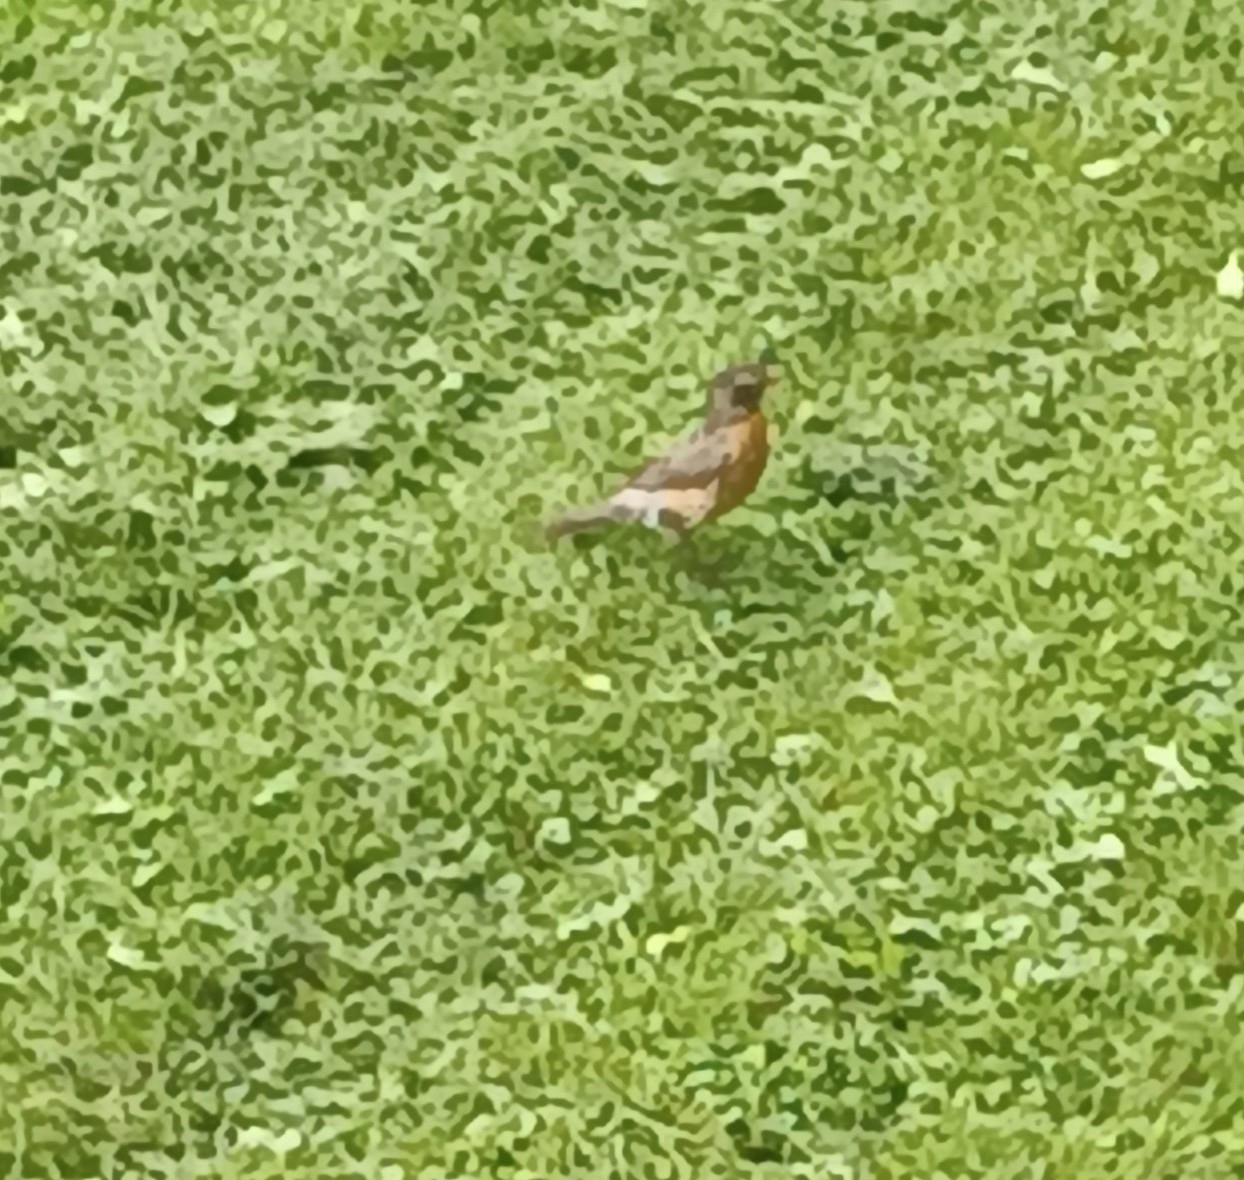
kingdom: Animalia
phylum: Chordata
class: Aves
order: Passeriformes
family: Turdidae
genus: Turdus
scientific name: Turdus migratorius
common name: American robin
